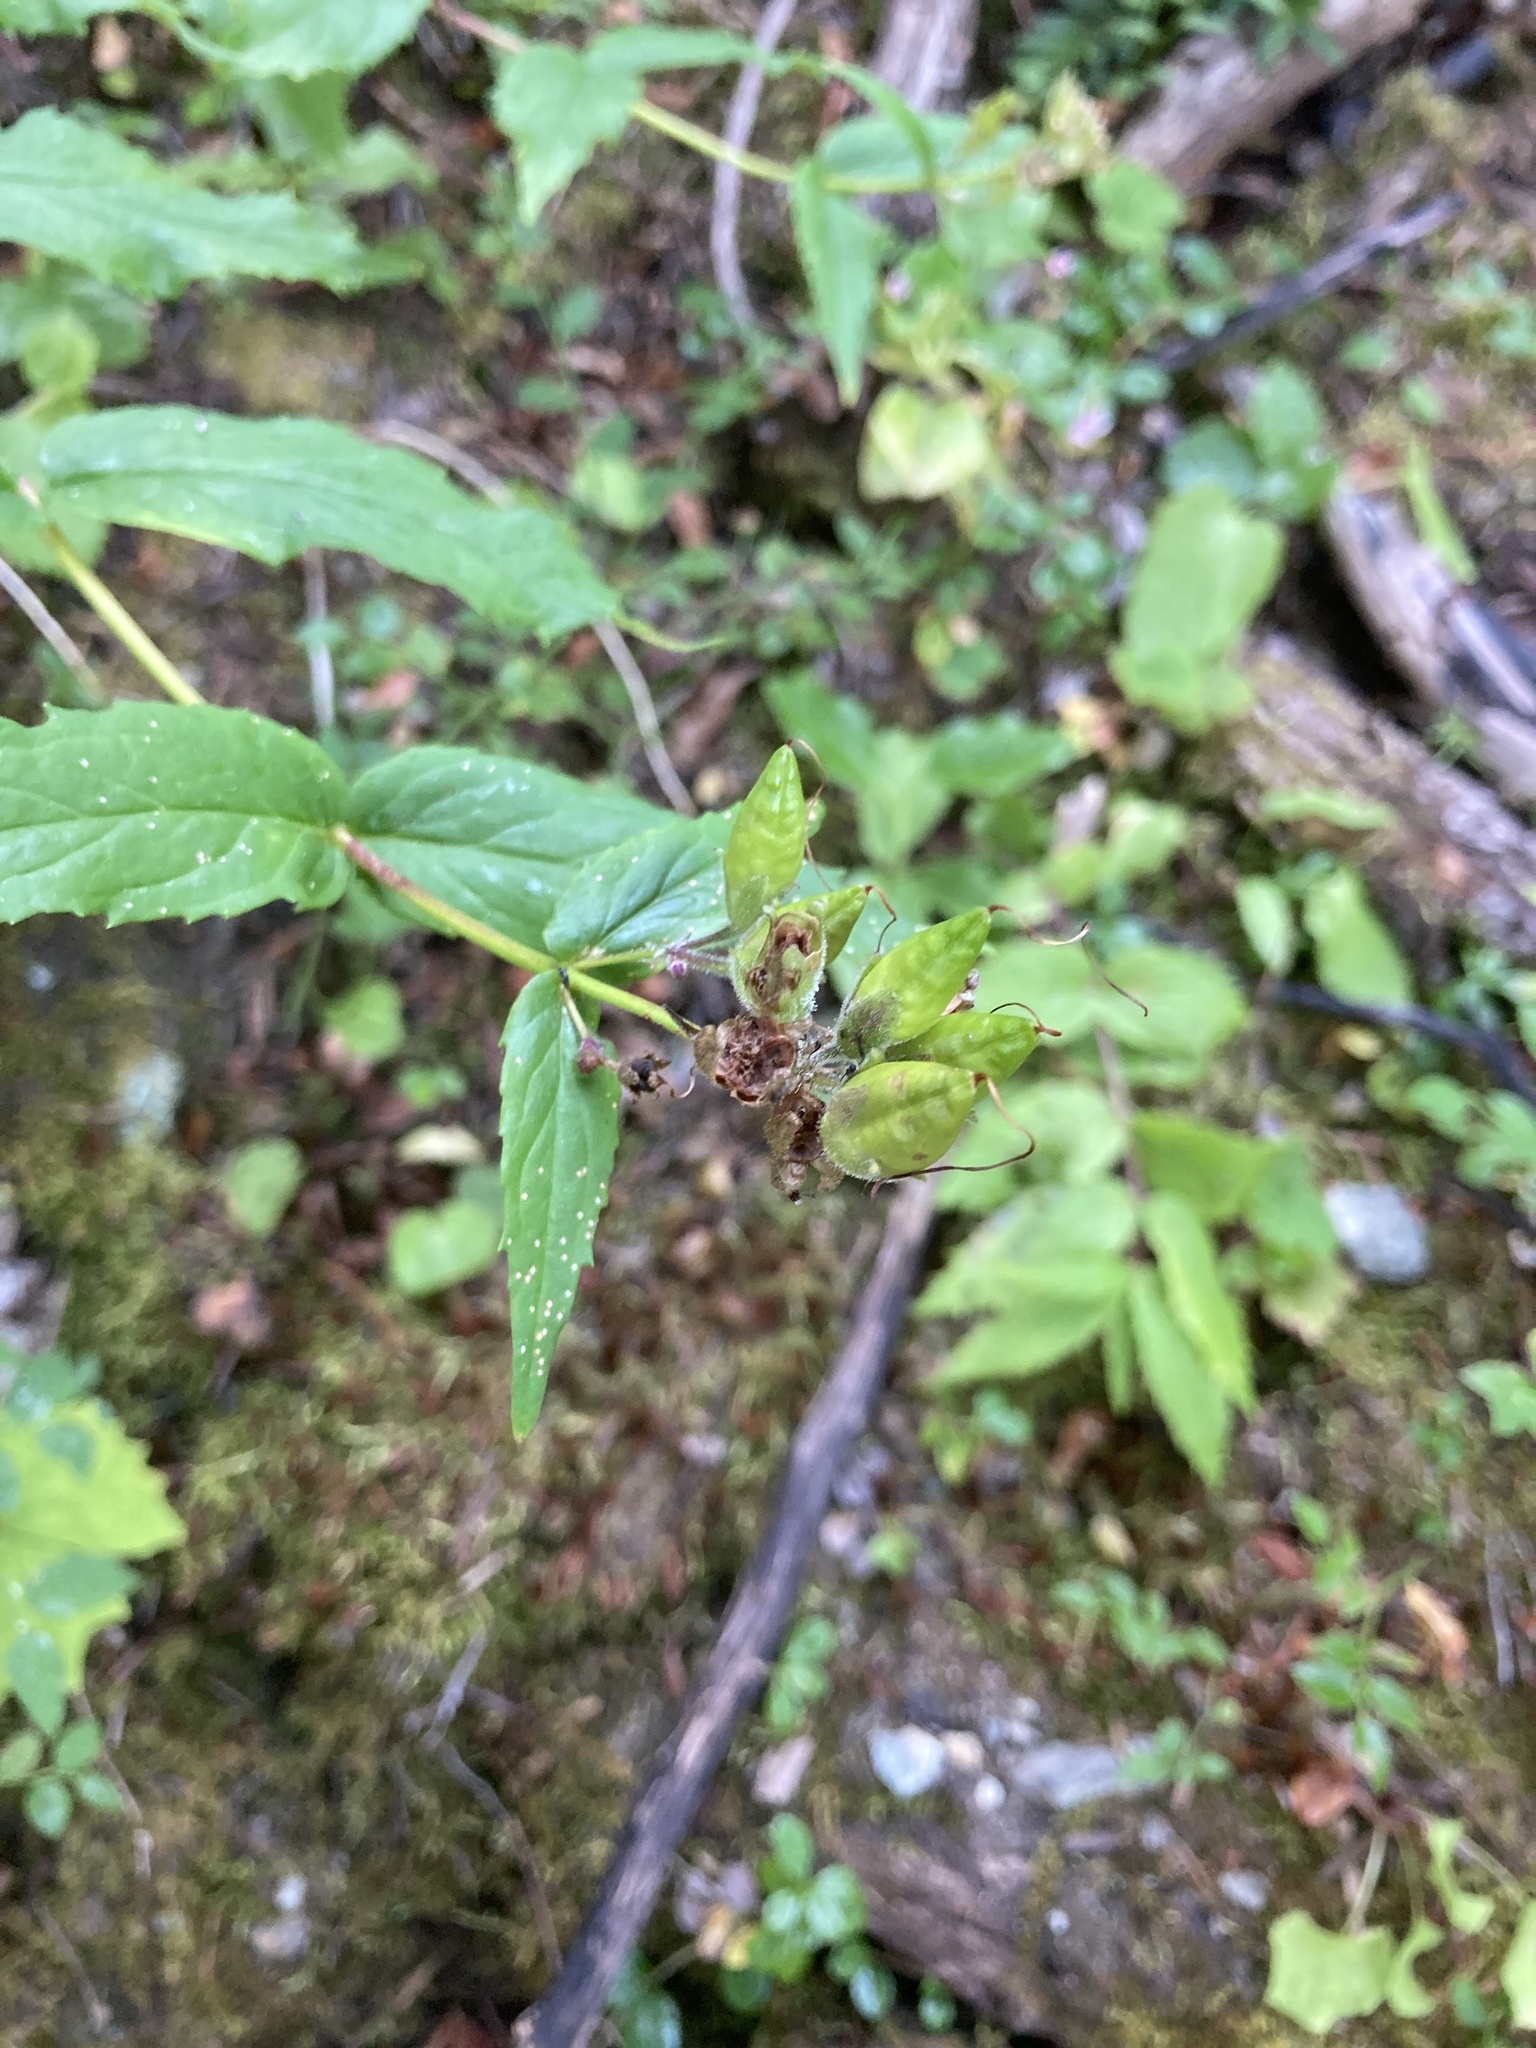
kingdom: Plantae
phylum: Tracheophyta
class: Magnoliopsida
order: Lamiales
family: Plantaginaceae
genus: Nothochelone
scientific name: Nothochelone nemorosa
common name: Woodland beardtongue
